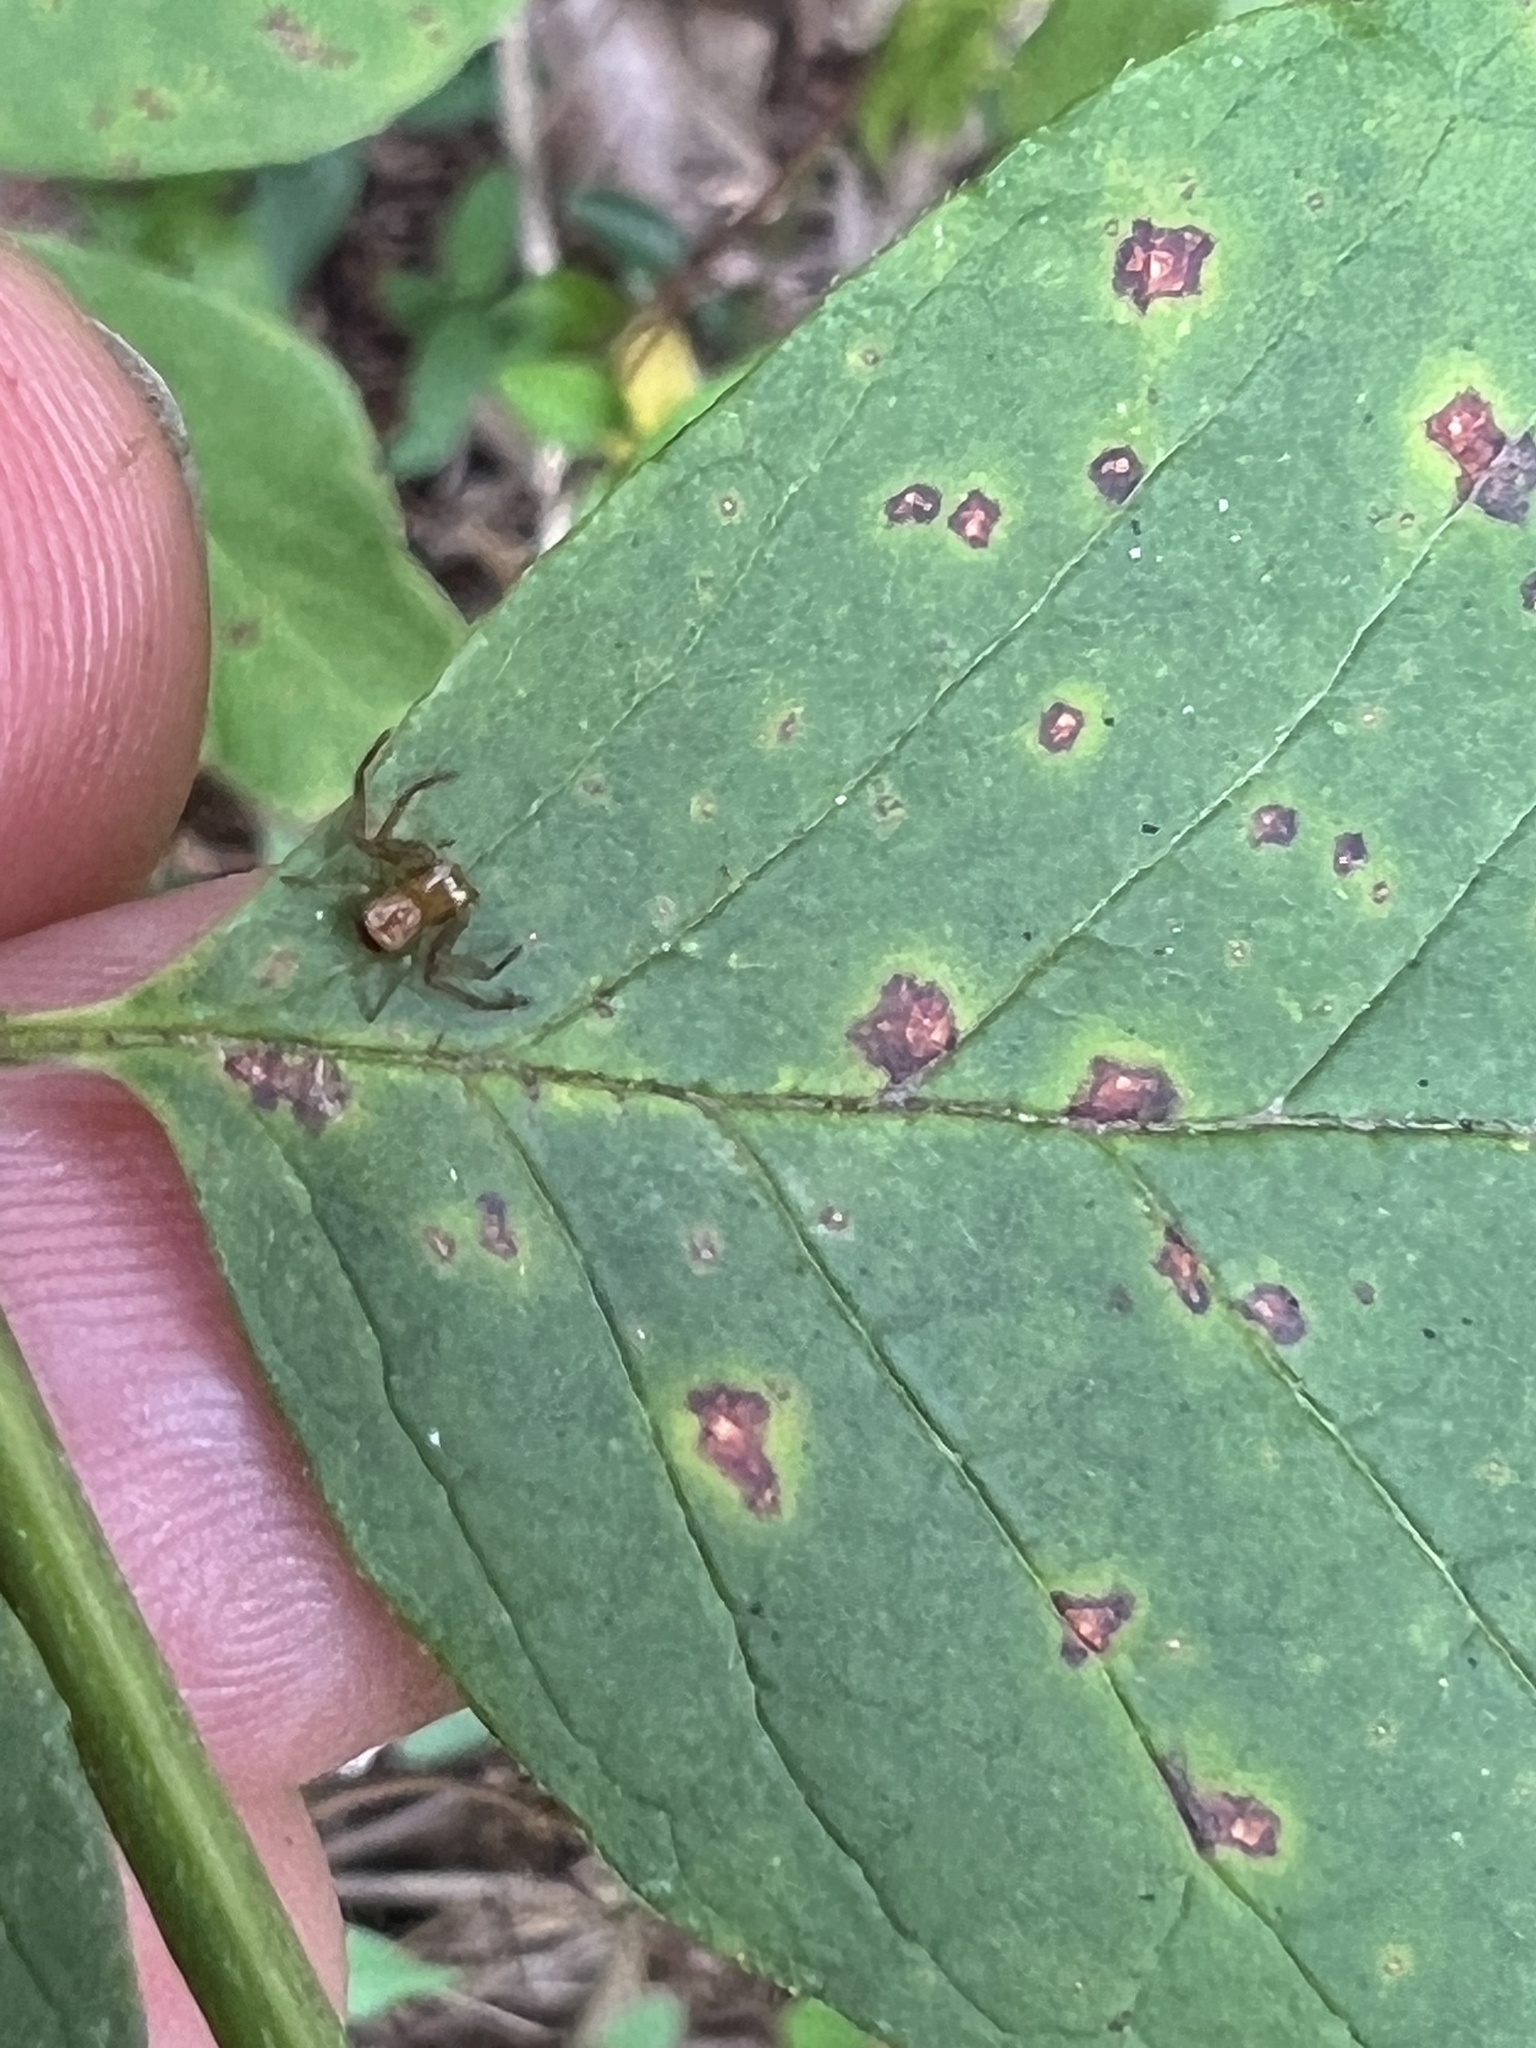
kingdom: Animalia
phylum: Arthropoda
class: Arachnida
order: Araneae
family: Thomisidae
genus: Synema
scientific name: Synema parvulum
